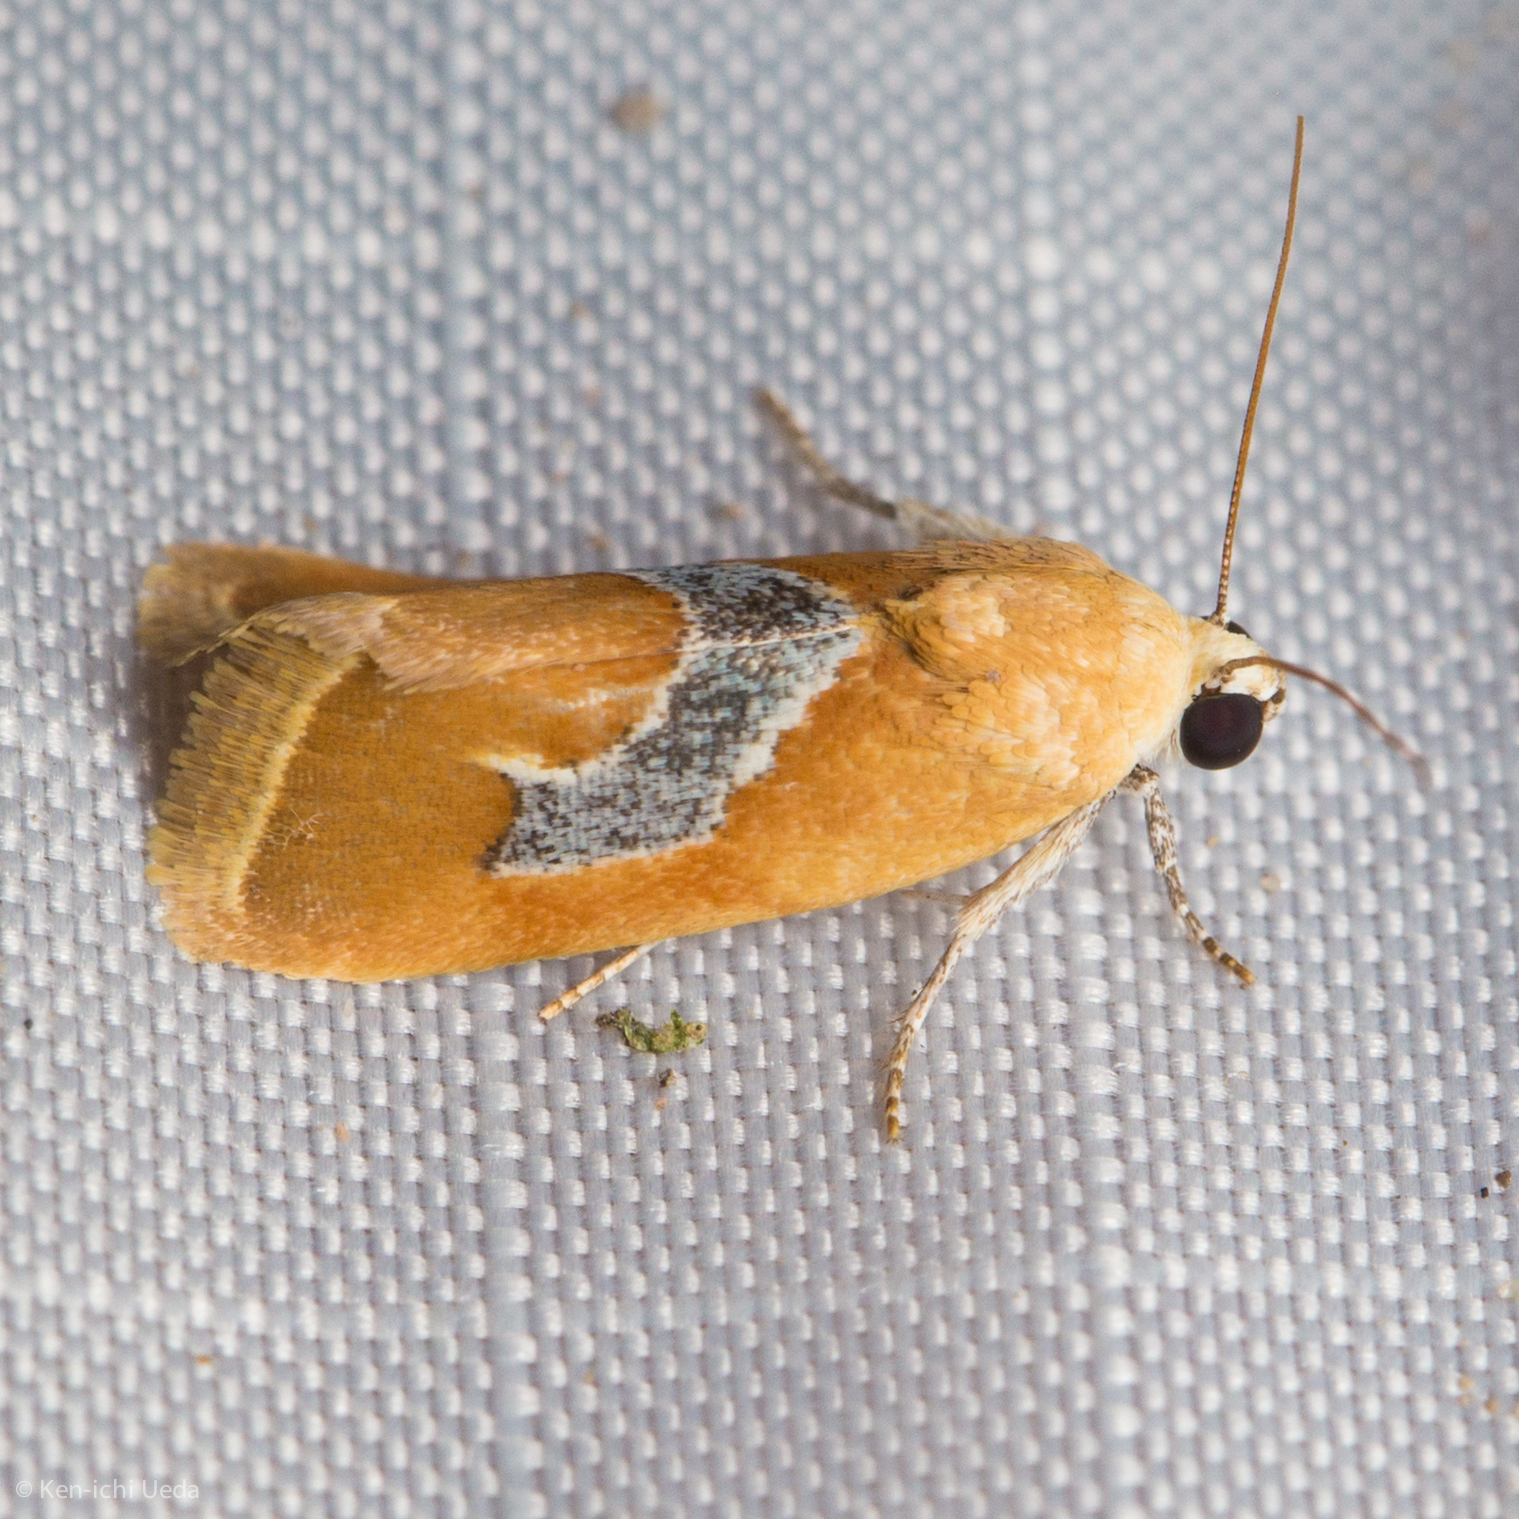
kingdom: Animalia
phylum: Arthropoda
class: Insecta
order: Lepidoptera
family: Noctuidae
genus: Ponometia
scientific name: Ponometia venustula
